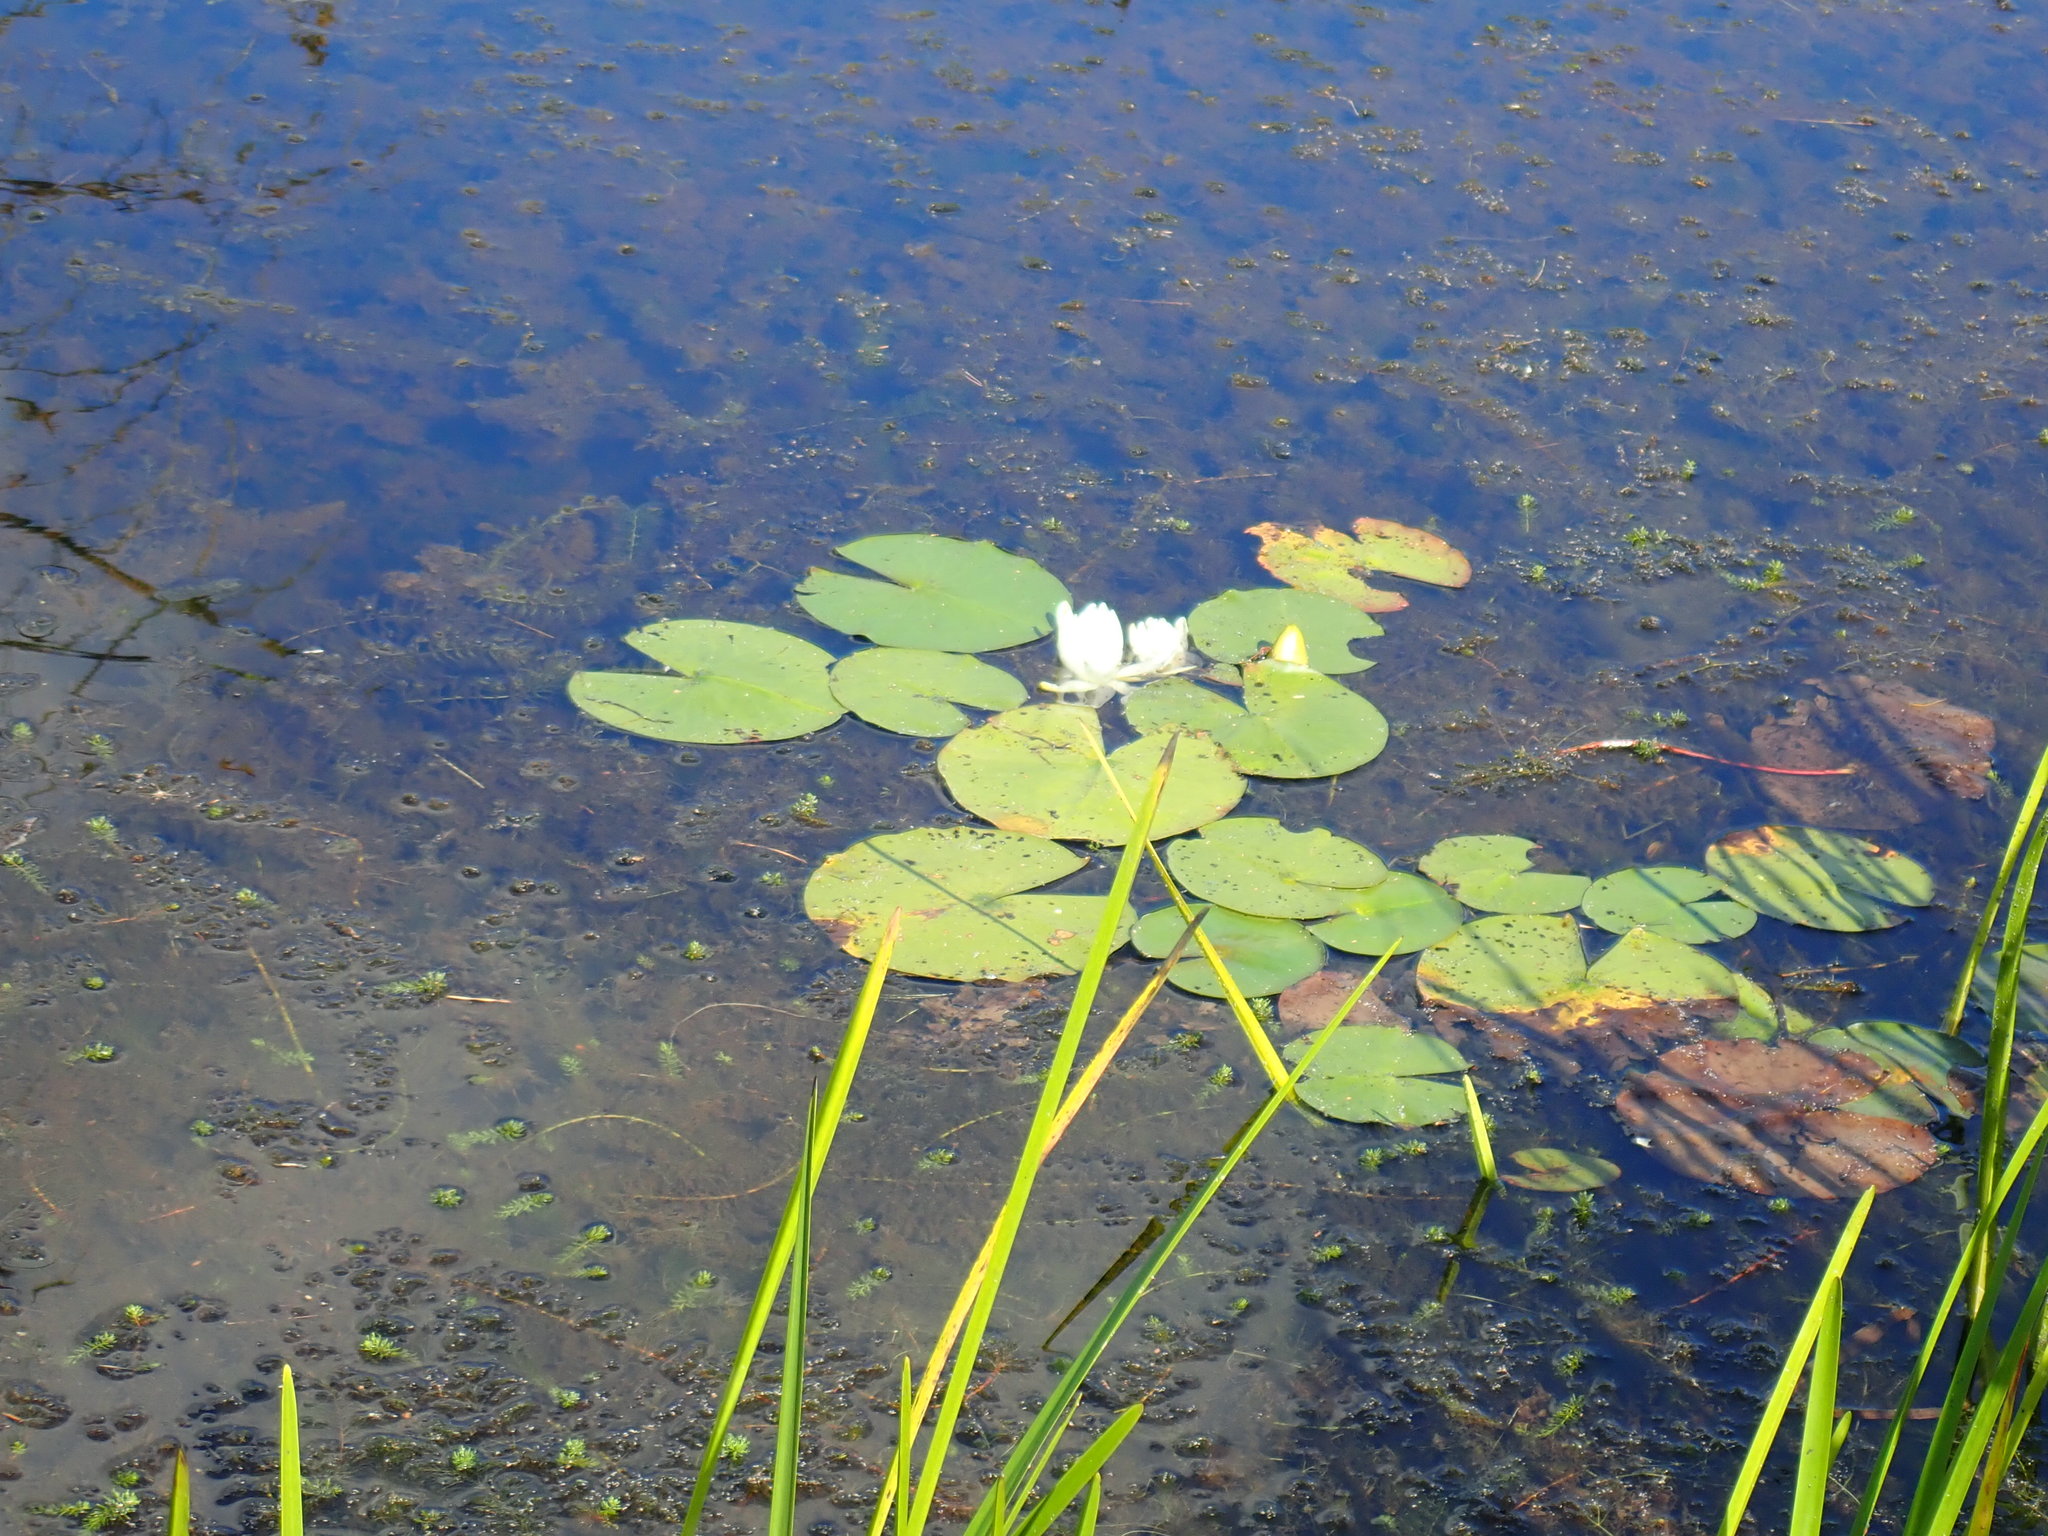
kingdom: Plantae
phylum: Tracheophyta
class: Magnoliopsida
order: Nymphaeales
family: Nymphaeaceae
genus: Nymphaea
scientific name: Nymphaea odorata
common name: Fragrant water-lily
